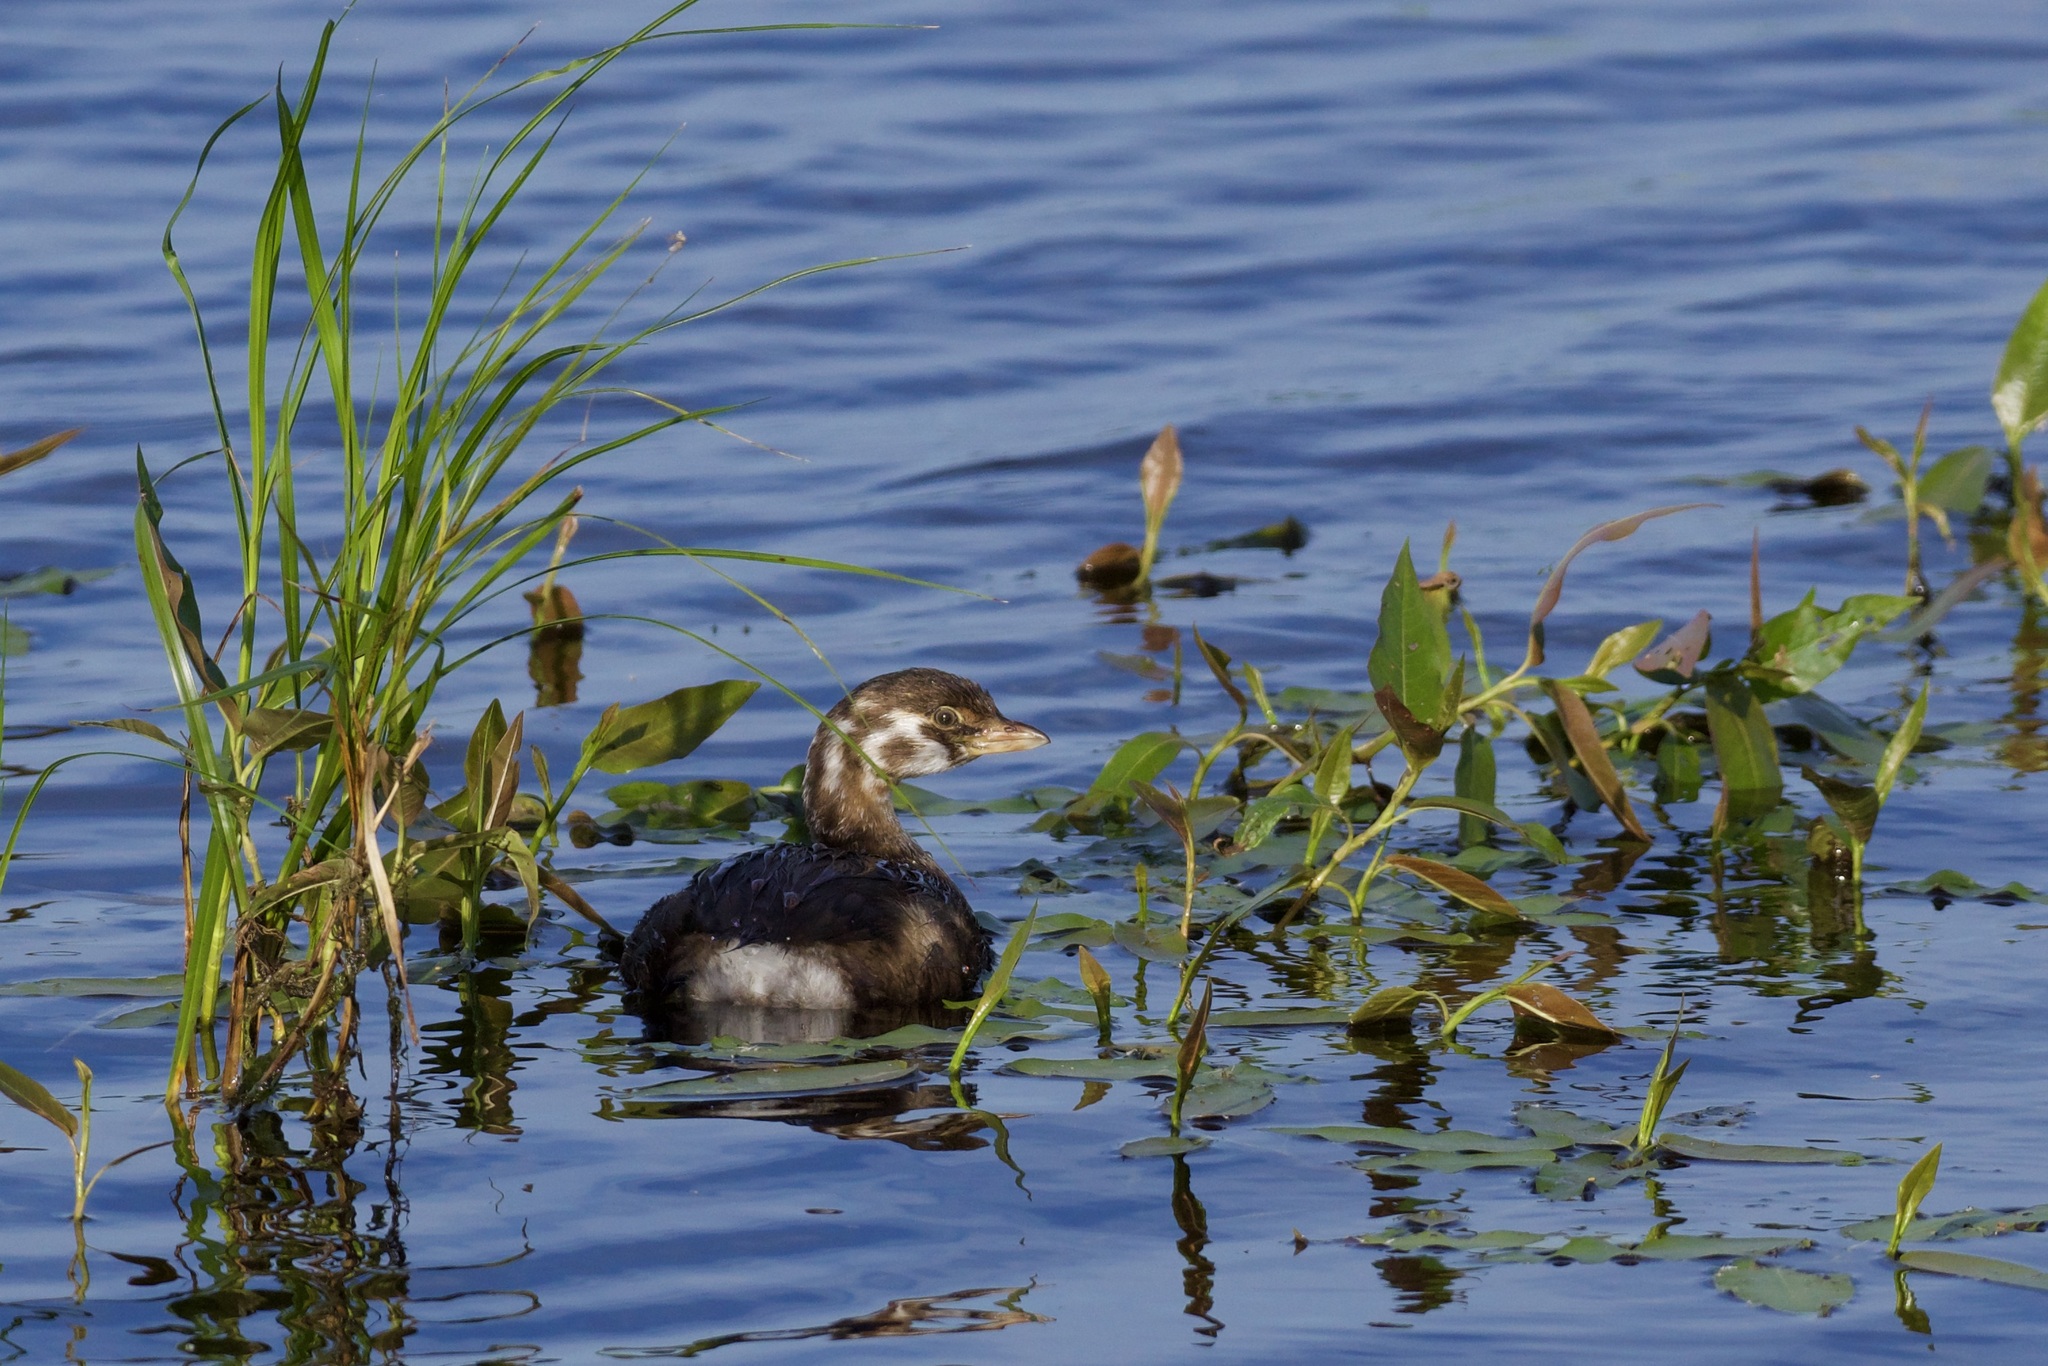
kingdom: Animalia
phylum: Chordata
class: Aves
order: Podicipediformes
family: Podicipedidae
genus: Podilymbus
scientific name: Podilymbus podiceps
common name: Pied-billed grebe
